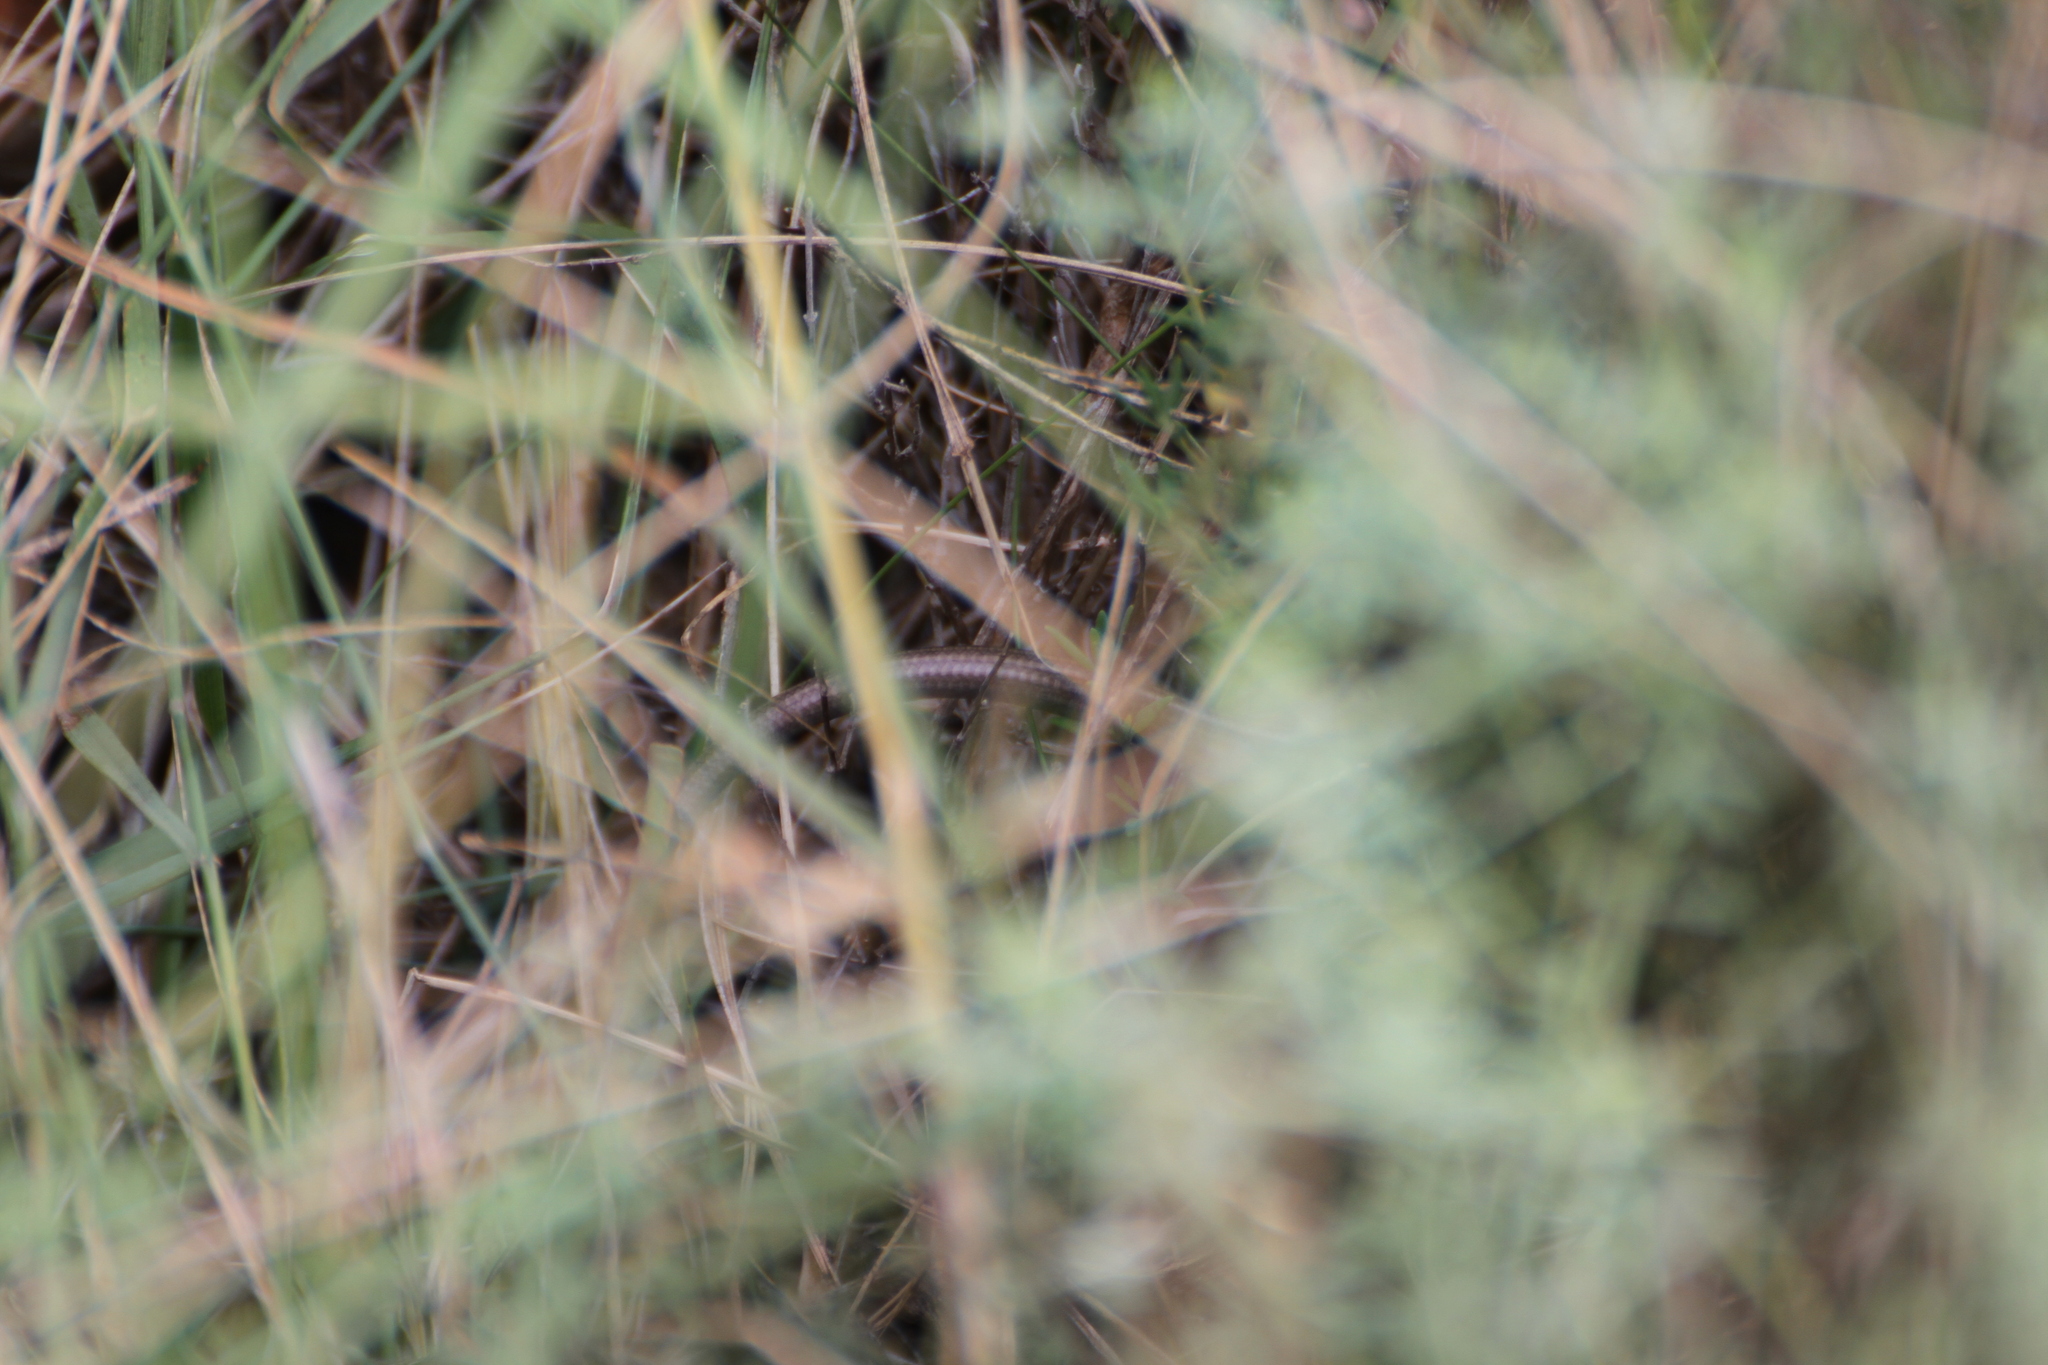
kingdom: Animalia
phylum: Chordata
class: Squamata
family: Scincidae
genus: Chalcides
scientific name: Chalcides striatus
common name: Western (or iberian) three-toed skink
